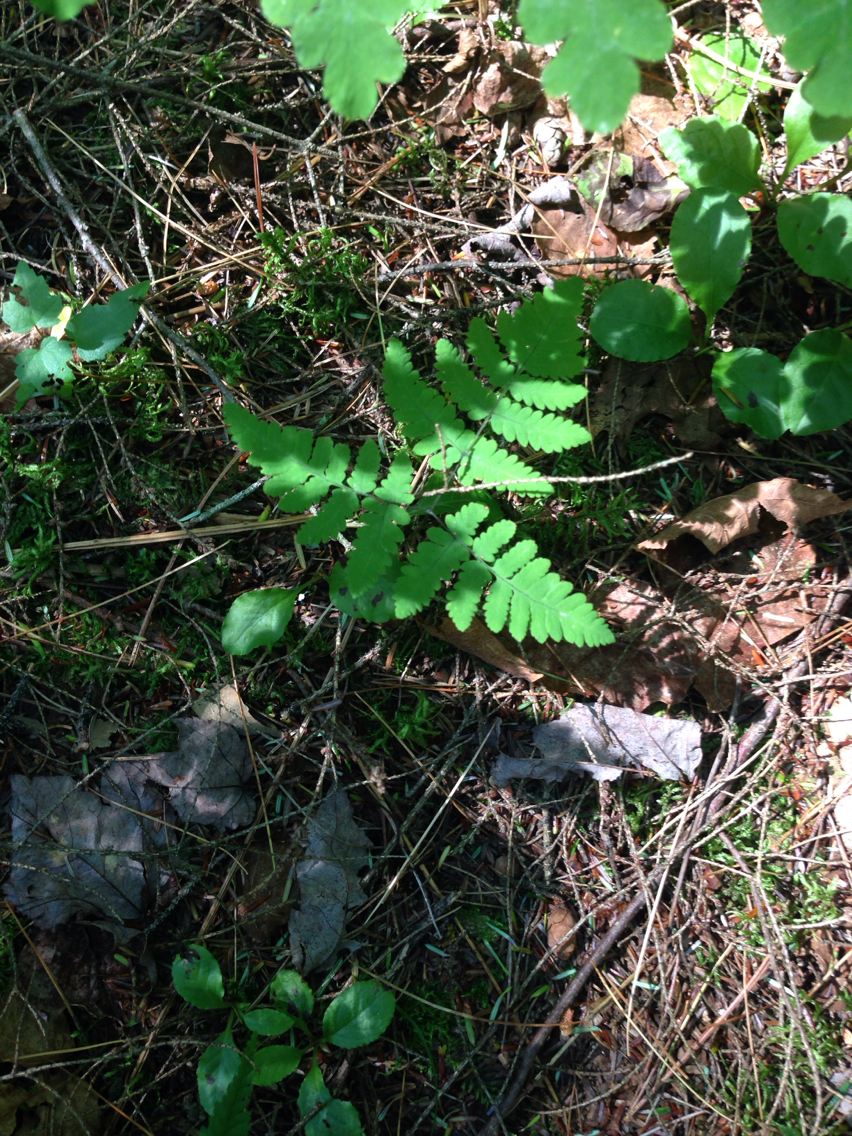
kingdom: Plantae
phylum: Tracheophyta
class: Polypodiopsida
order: Polypodiales
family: Cystopteridaceae
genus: Gymnocarpium
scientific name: Gymnocarpium dryopteris
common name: Oak fern
